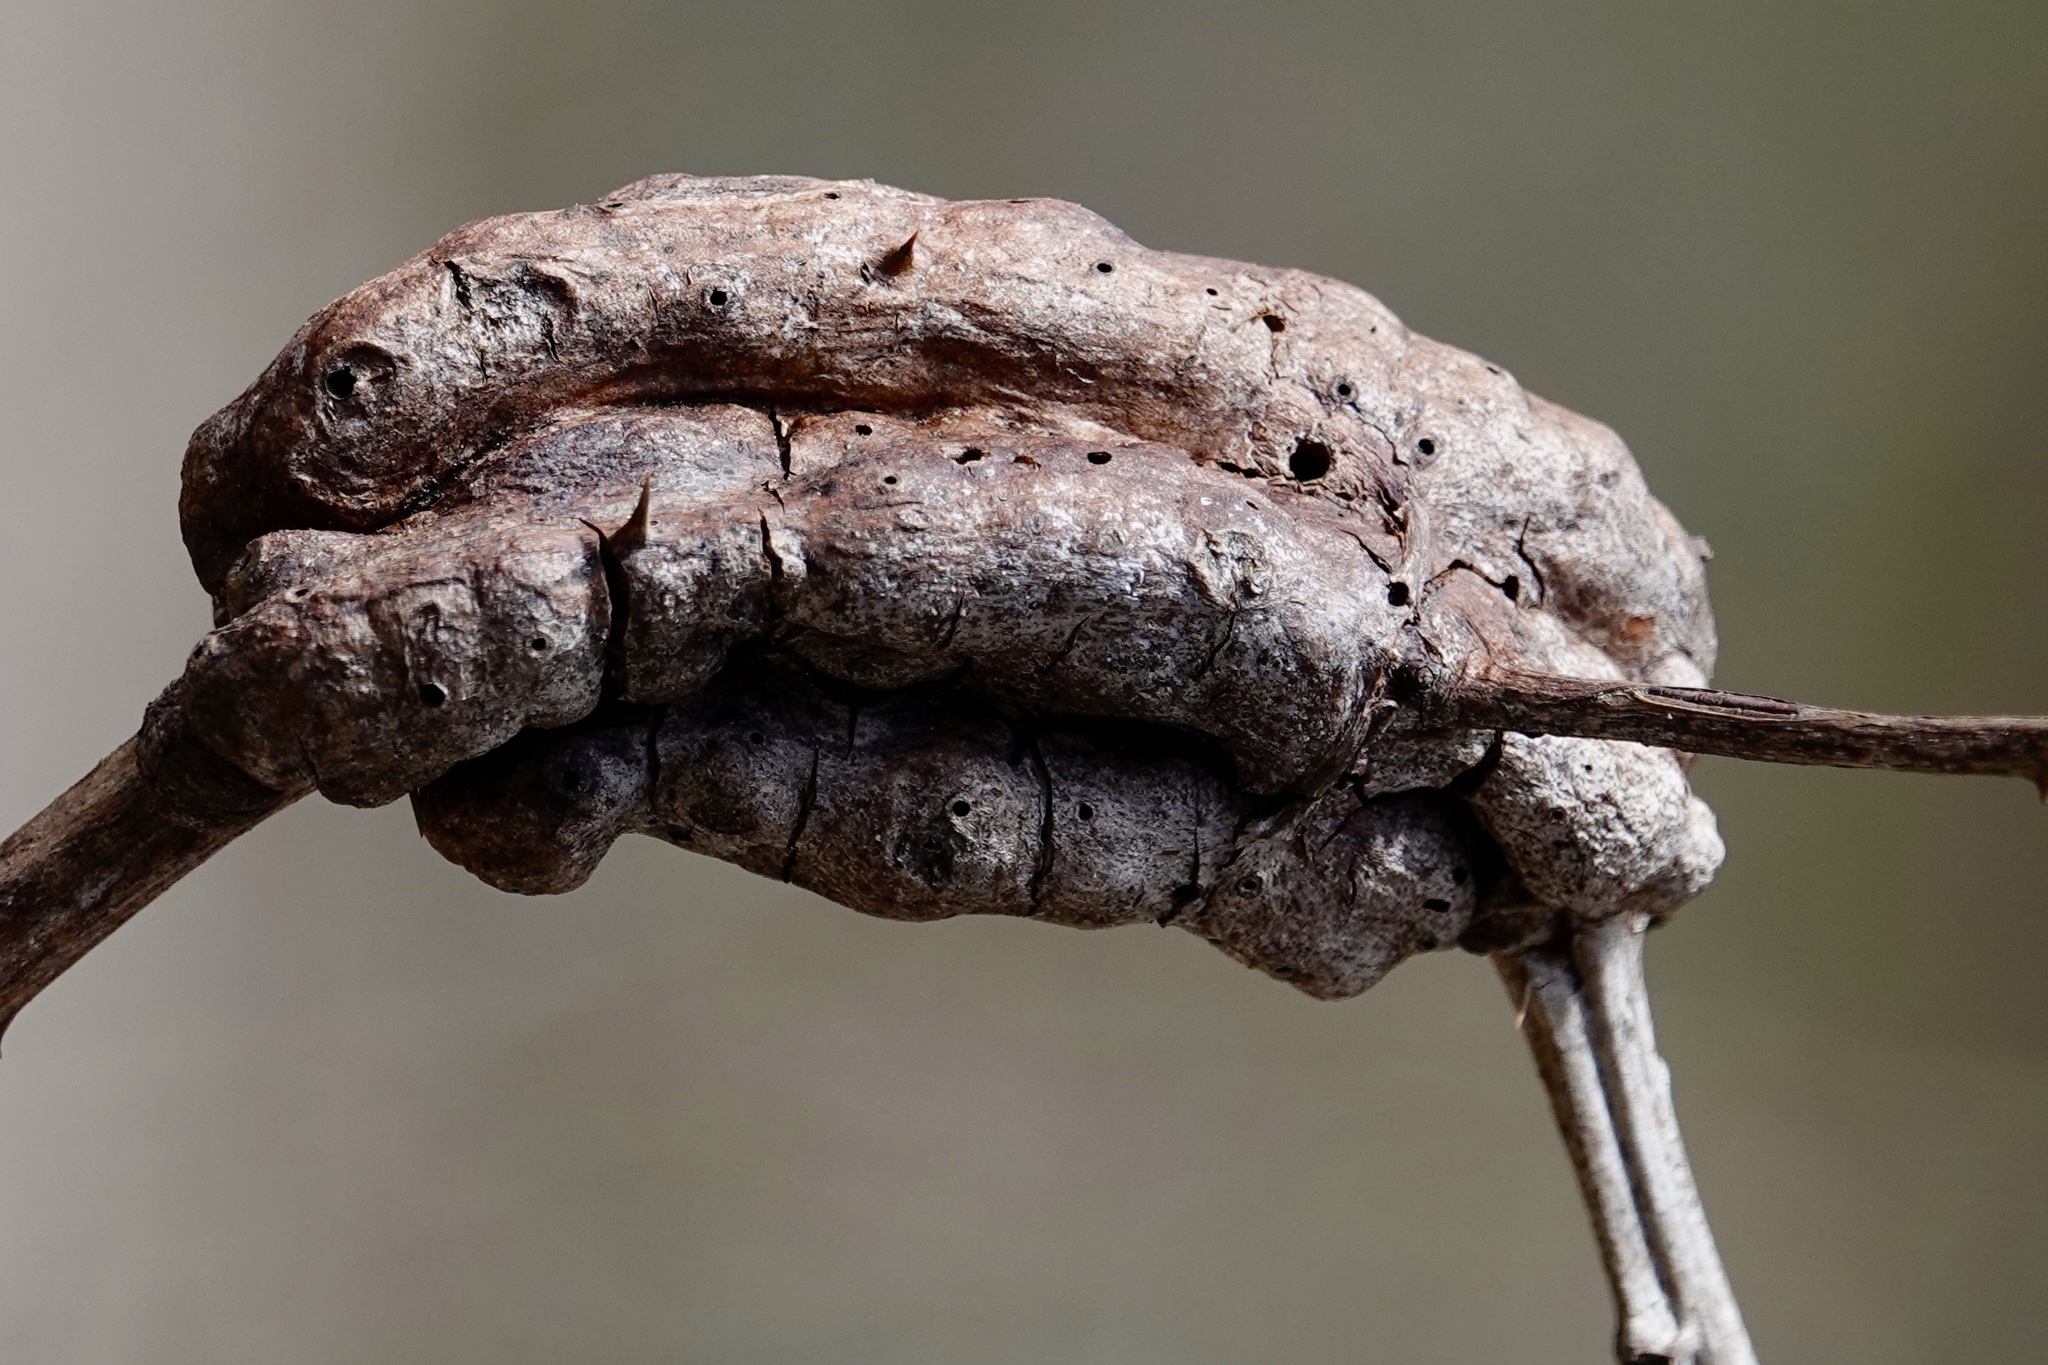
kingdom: Animalia
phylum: Arthropoda
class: Insecta
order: Hymenoptera
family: Cynipidae
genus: Diastrophus
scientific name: Diastrophus
